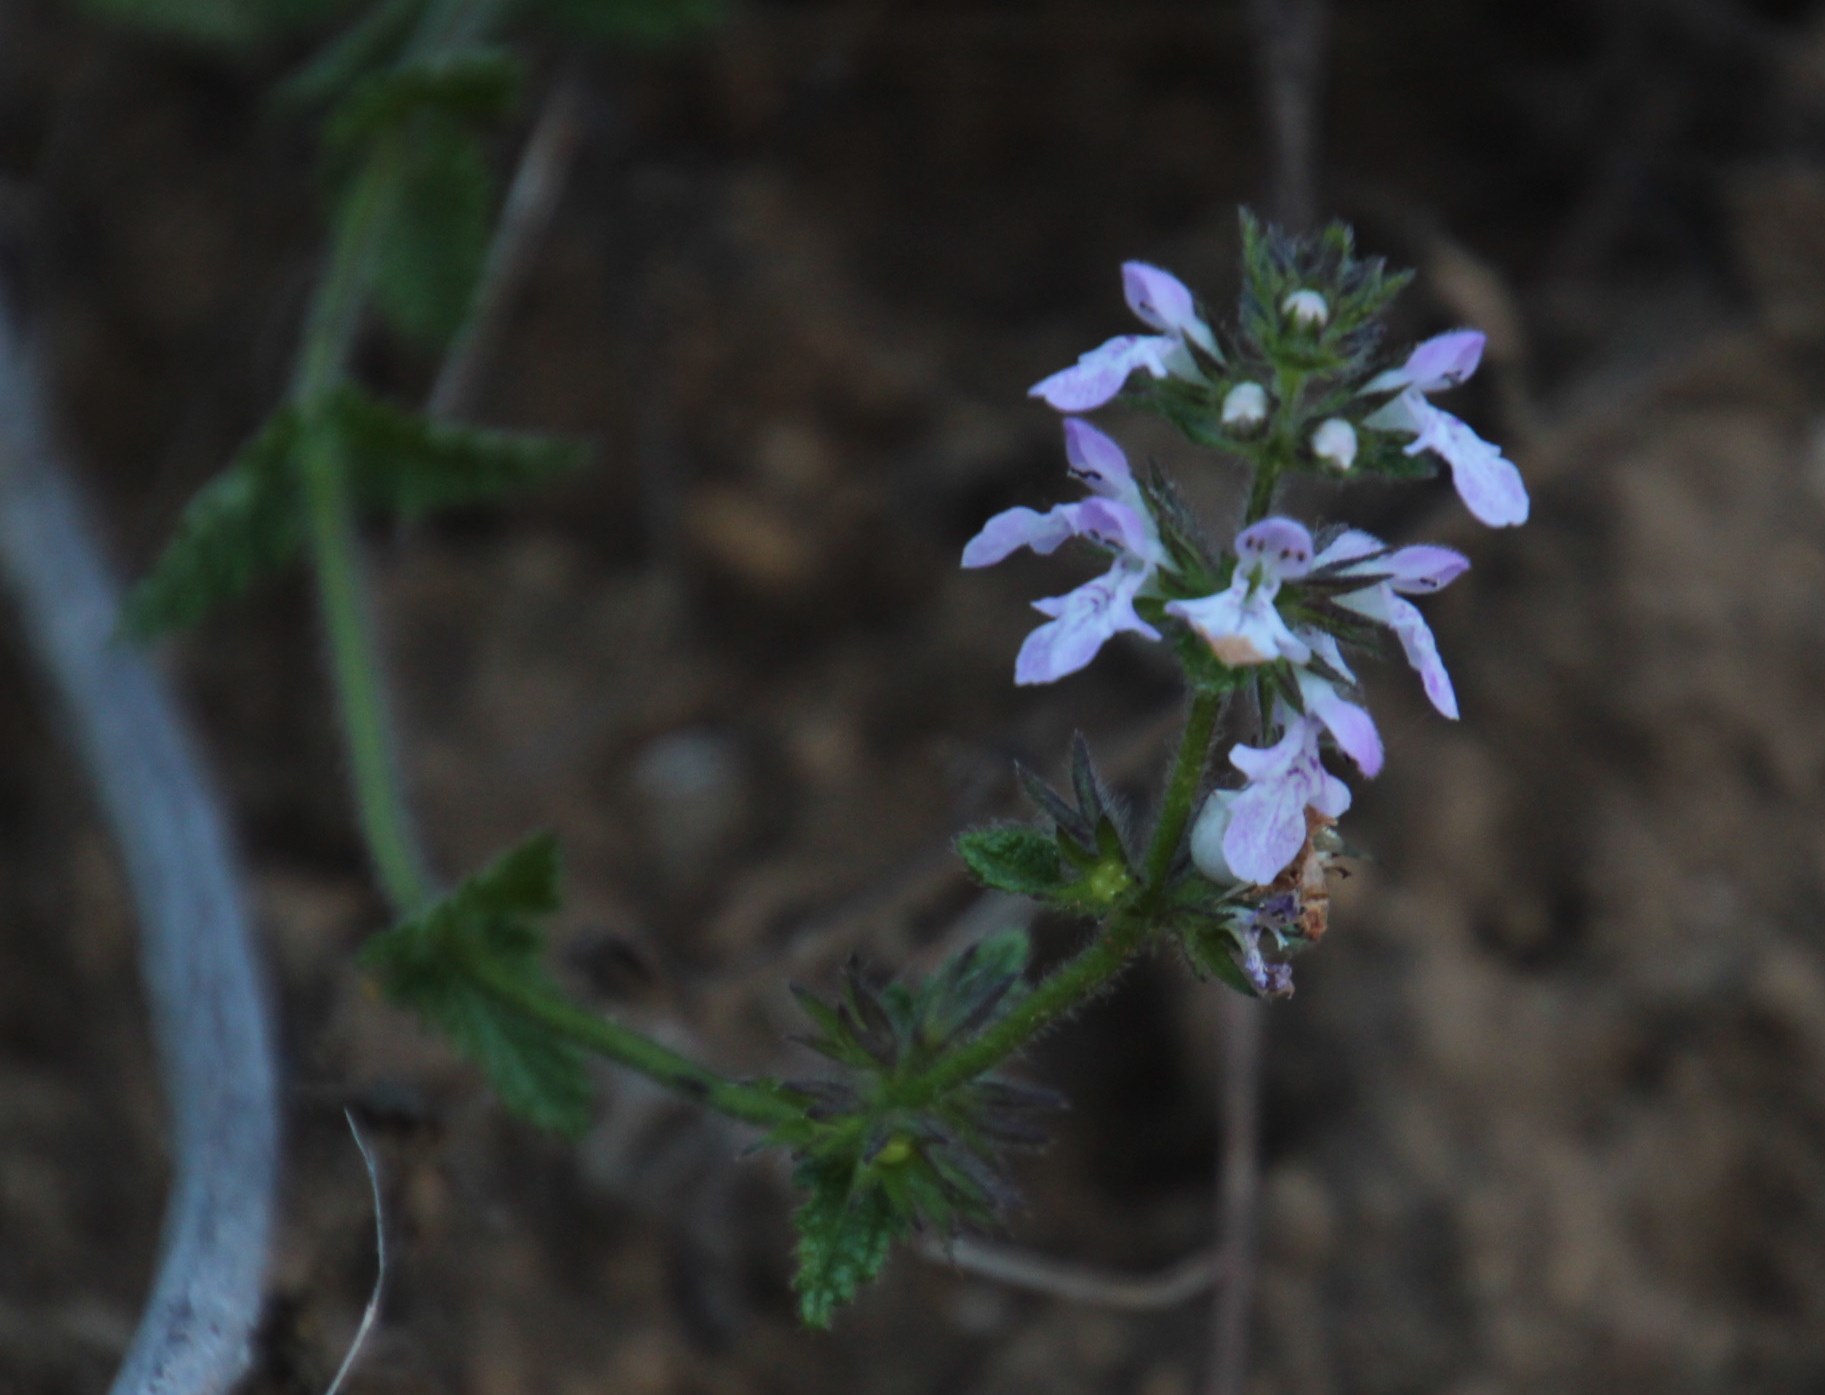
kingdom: Plantae
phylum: Tracheophyta
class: Magnoliopsida
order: Lamiales
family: Lamiaceae
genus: Stachys
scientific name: Stachys bolusii
